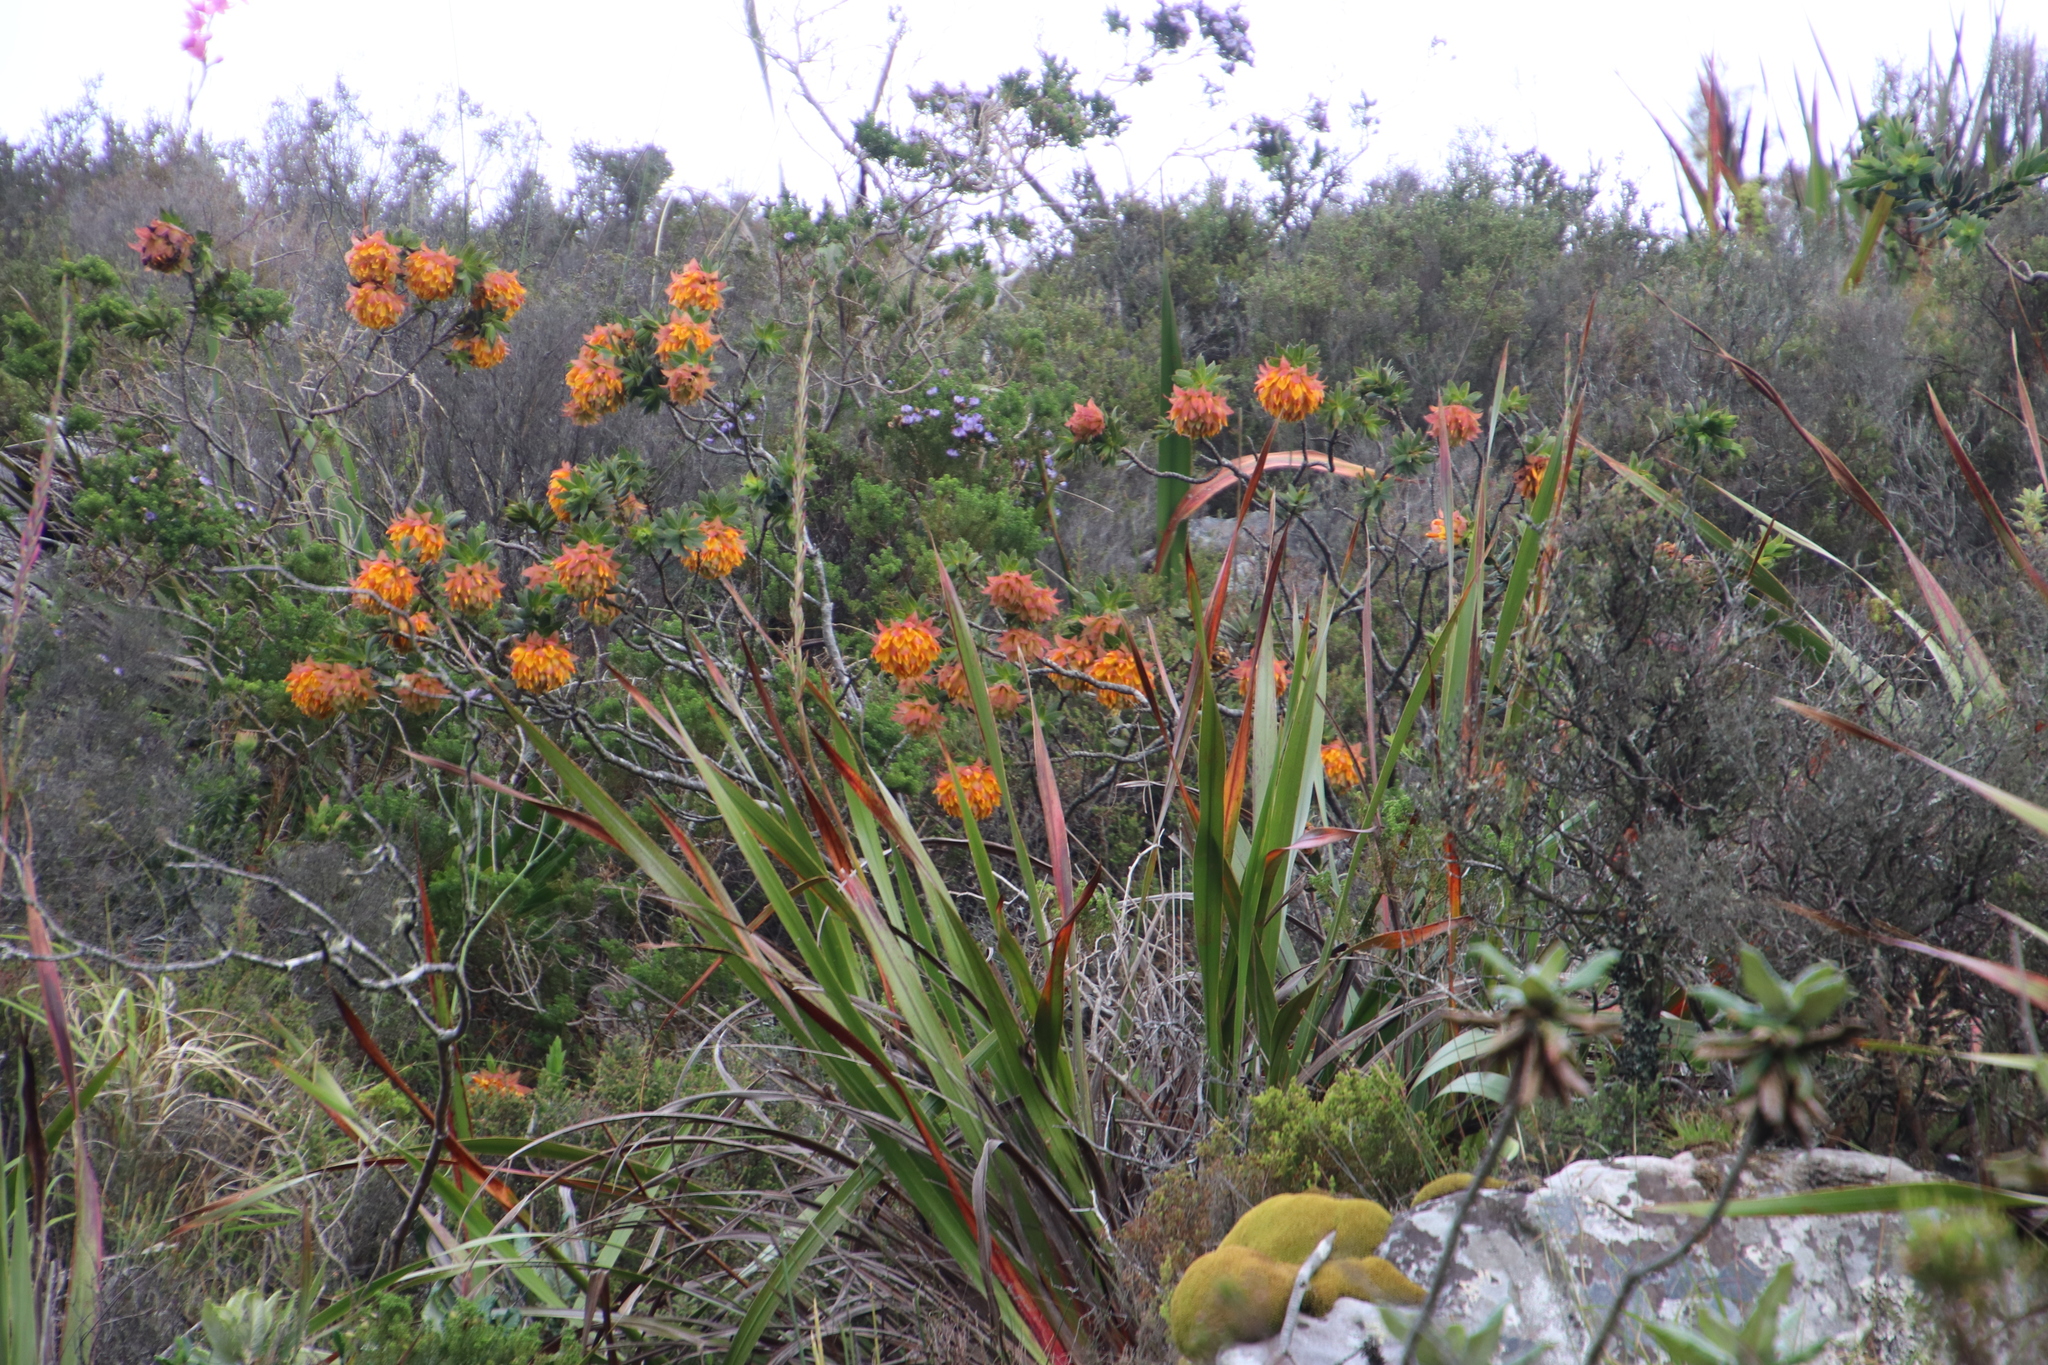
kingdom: Plantae
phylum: Tracheophyta
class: Magnoliopsida
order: Fabales
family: Fabaceae
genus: Liparia
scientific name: Liparia splendens
